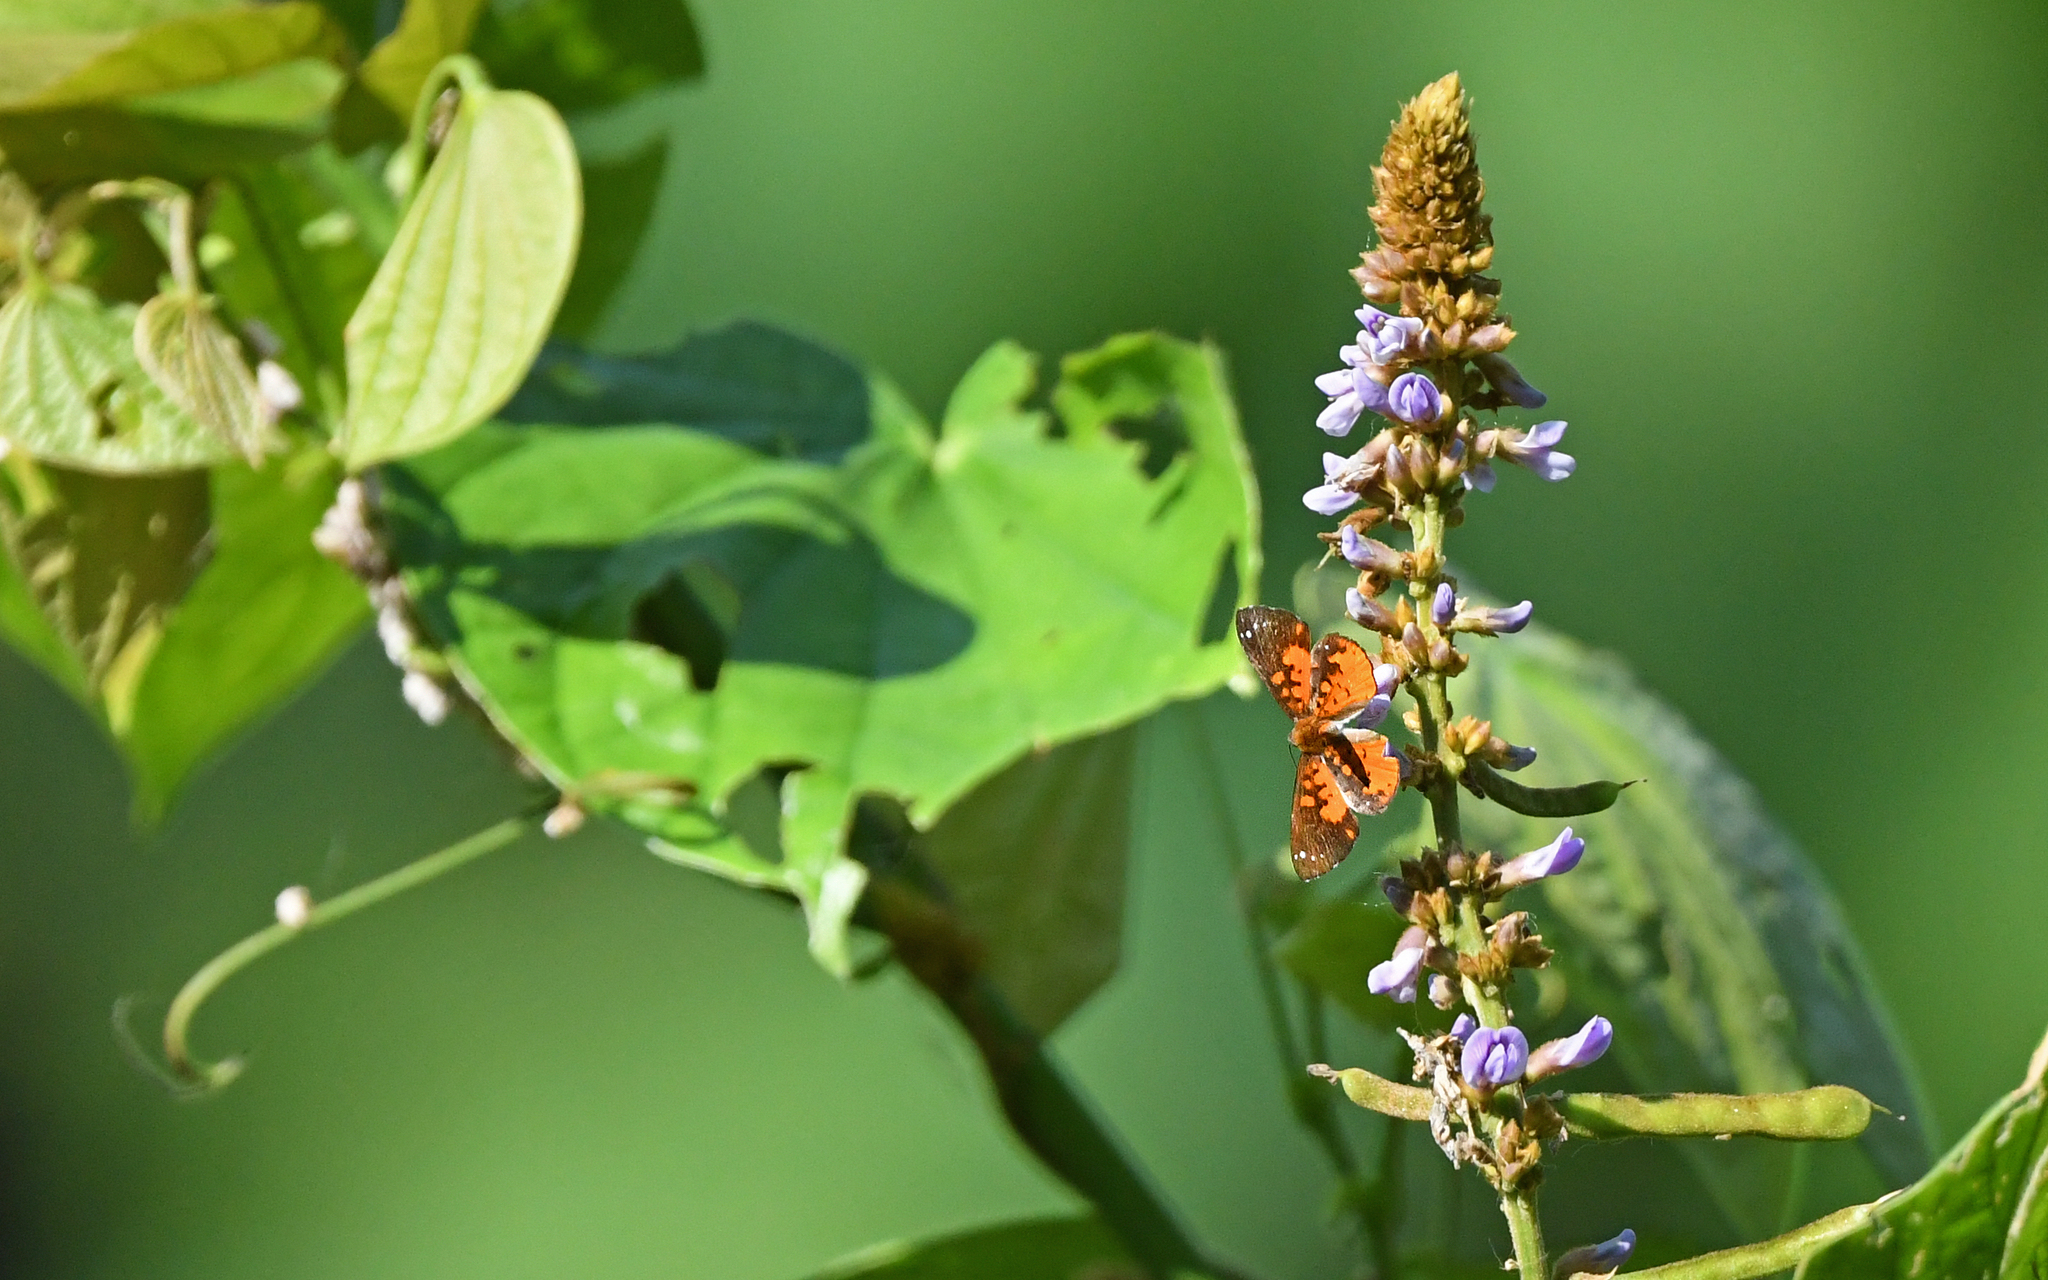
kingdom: Animalia
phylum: Arthropoda
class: Insecta
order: Lepidoptera
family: Riodinidae
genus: Polystichtis
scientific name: Polystichtis emylius
